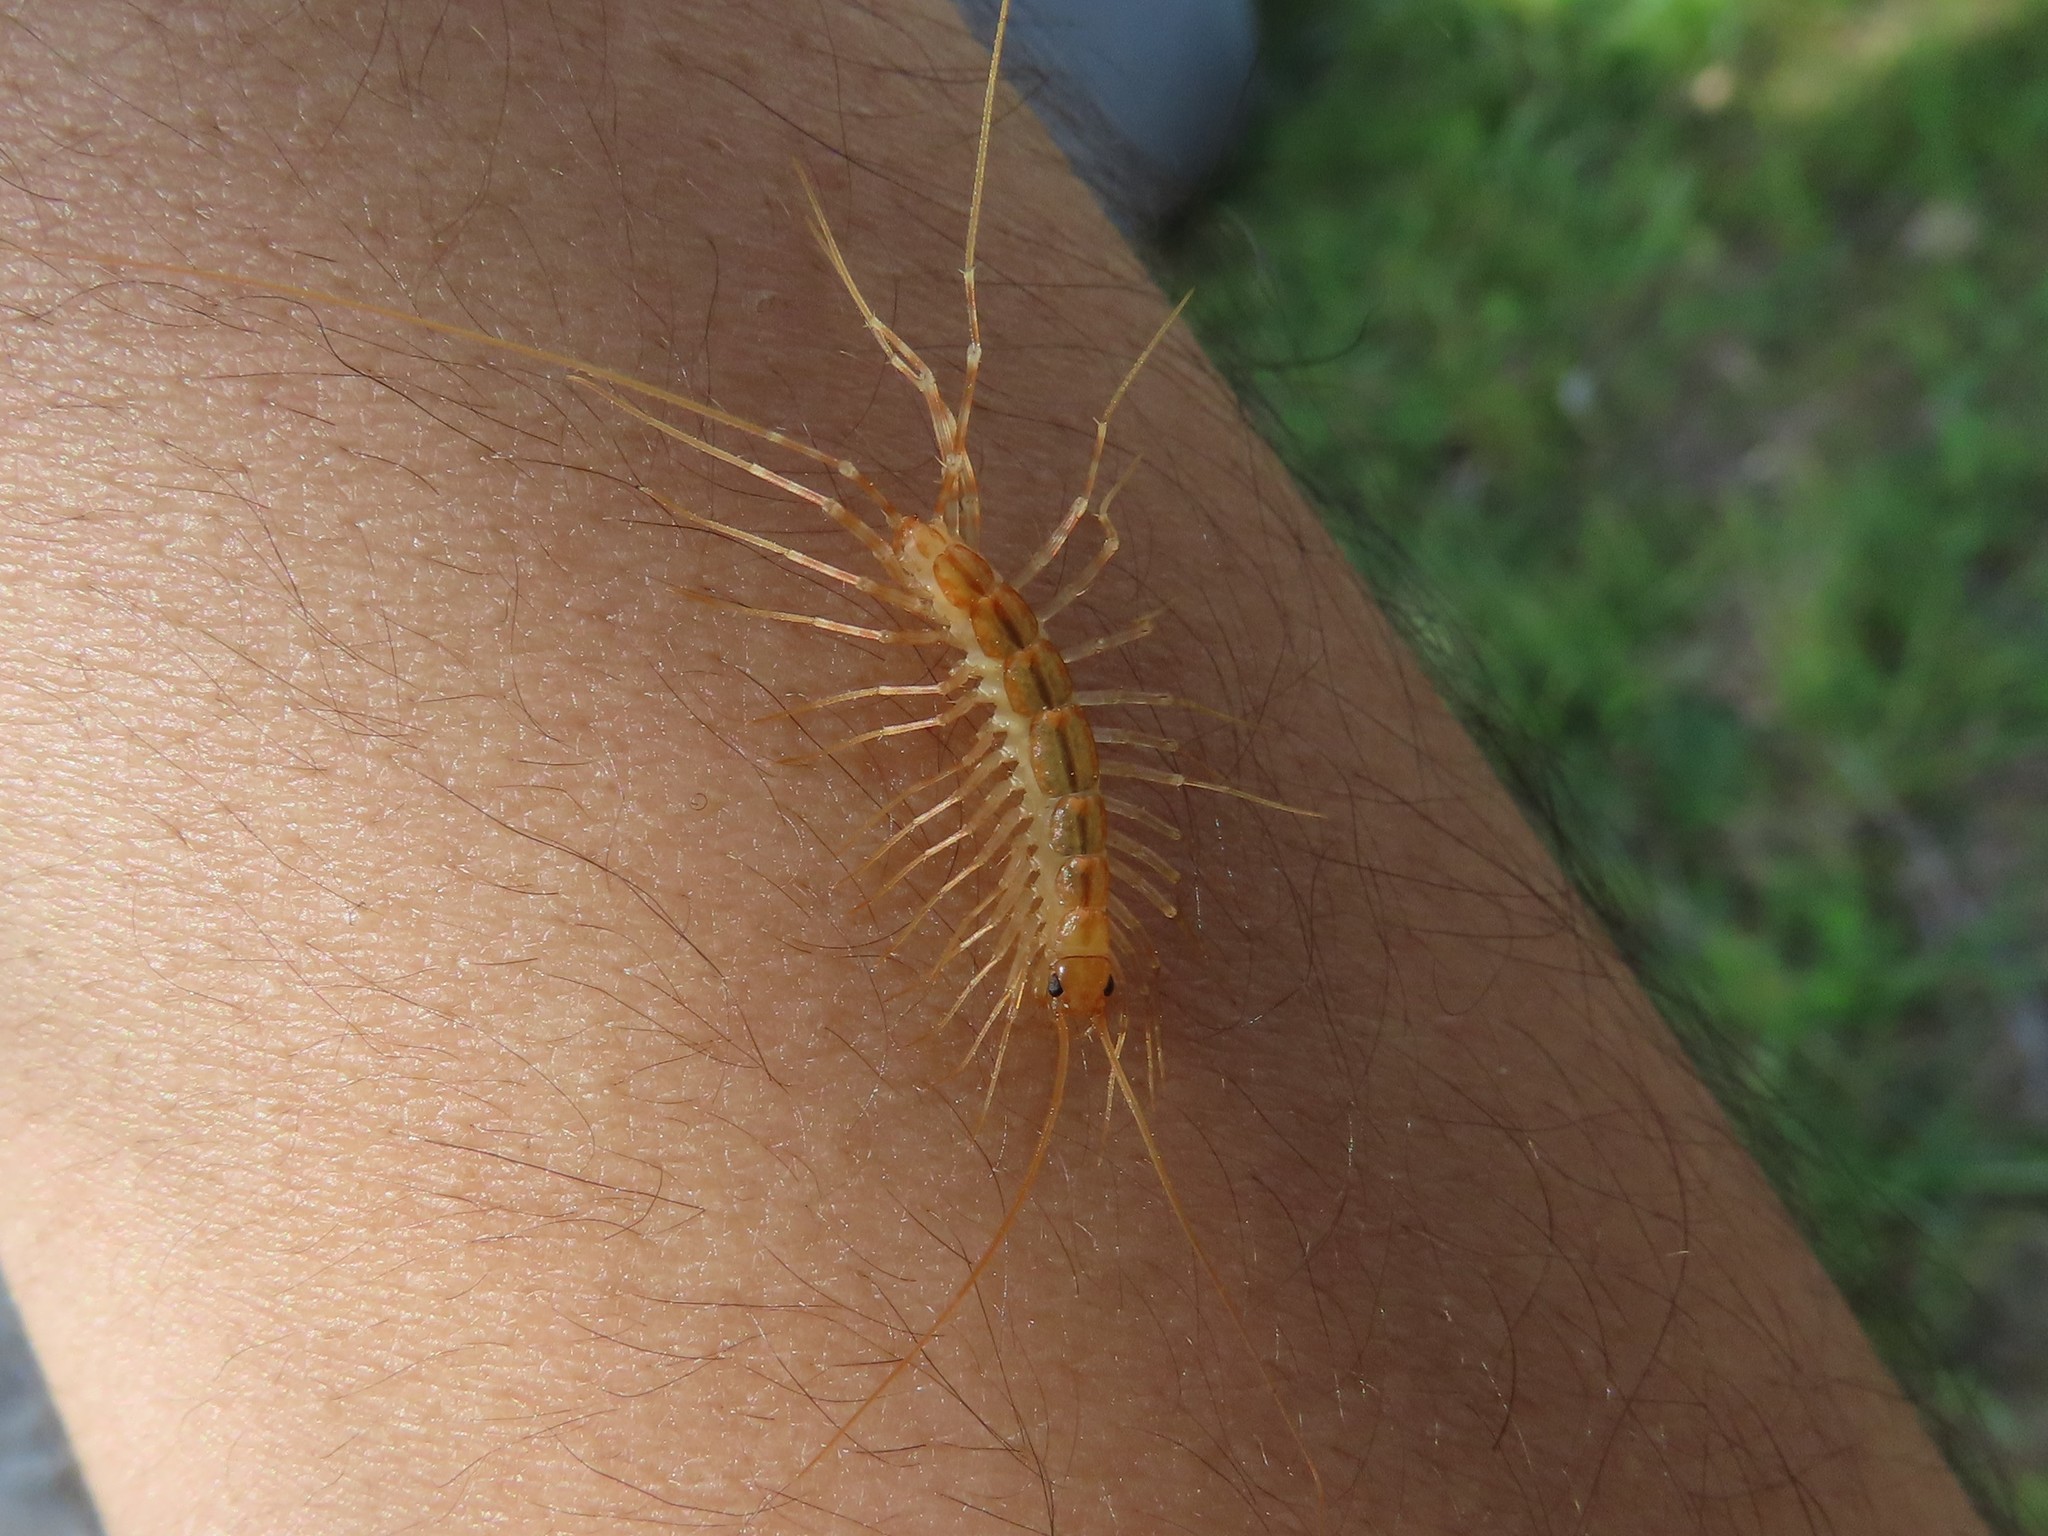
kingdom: Animalia
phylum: Arthropoda
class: Chilopoda
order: Scutigeromorpha
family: Scutigeridae
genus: Scutigera
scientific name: Scutigera coleoptrata
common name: House centipede
